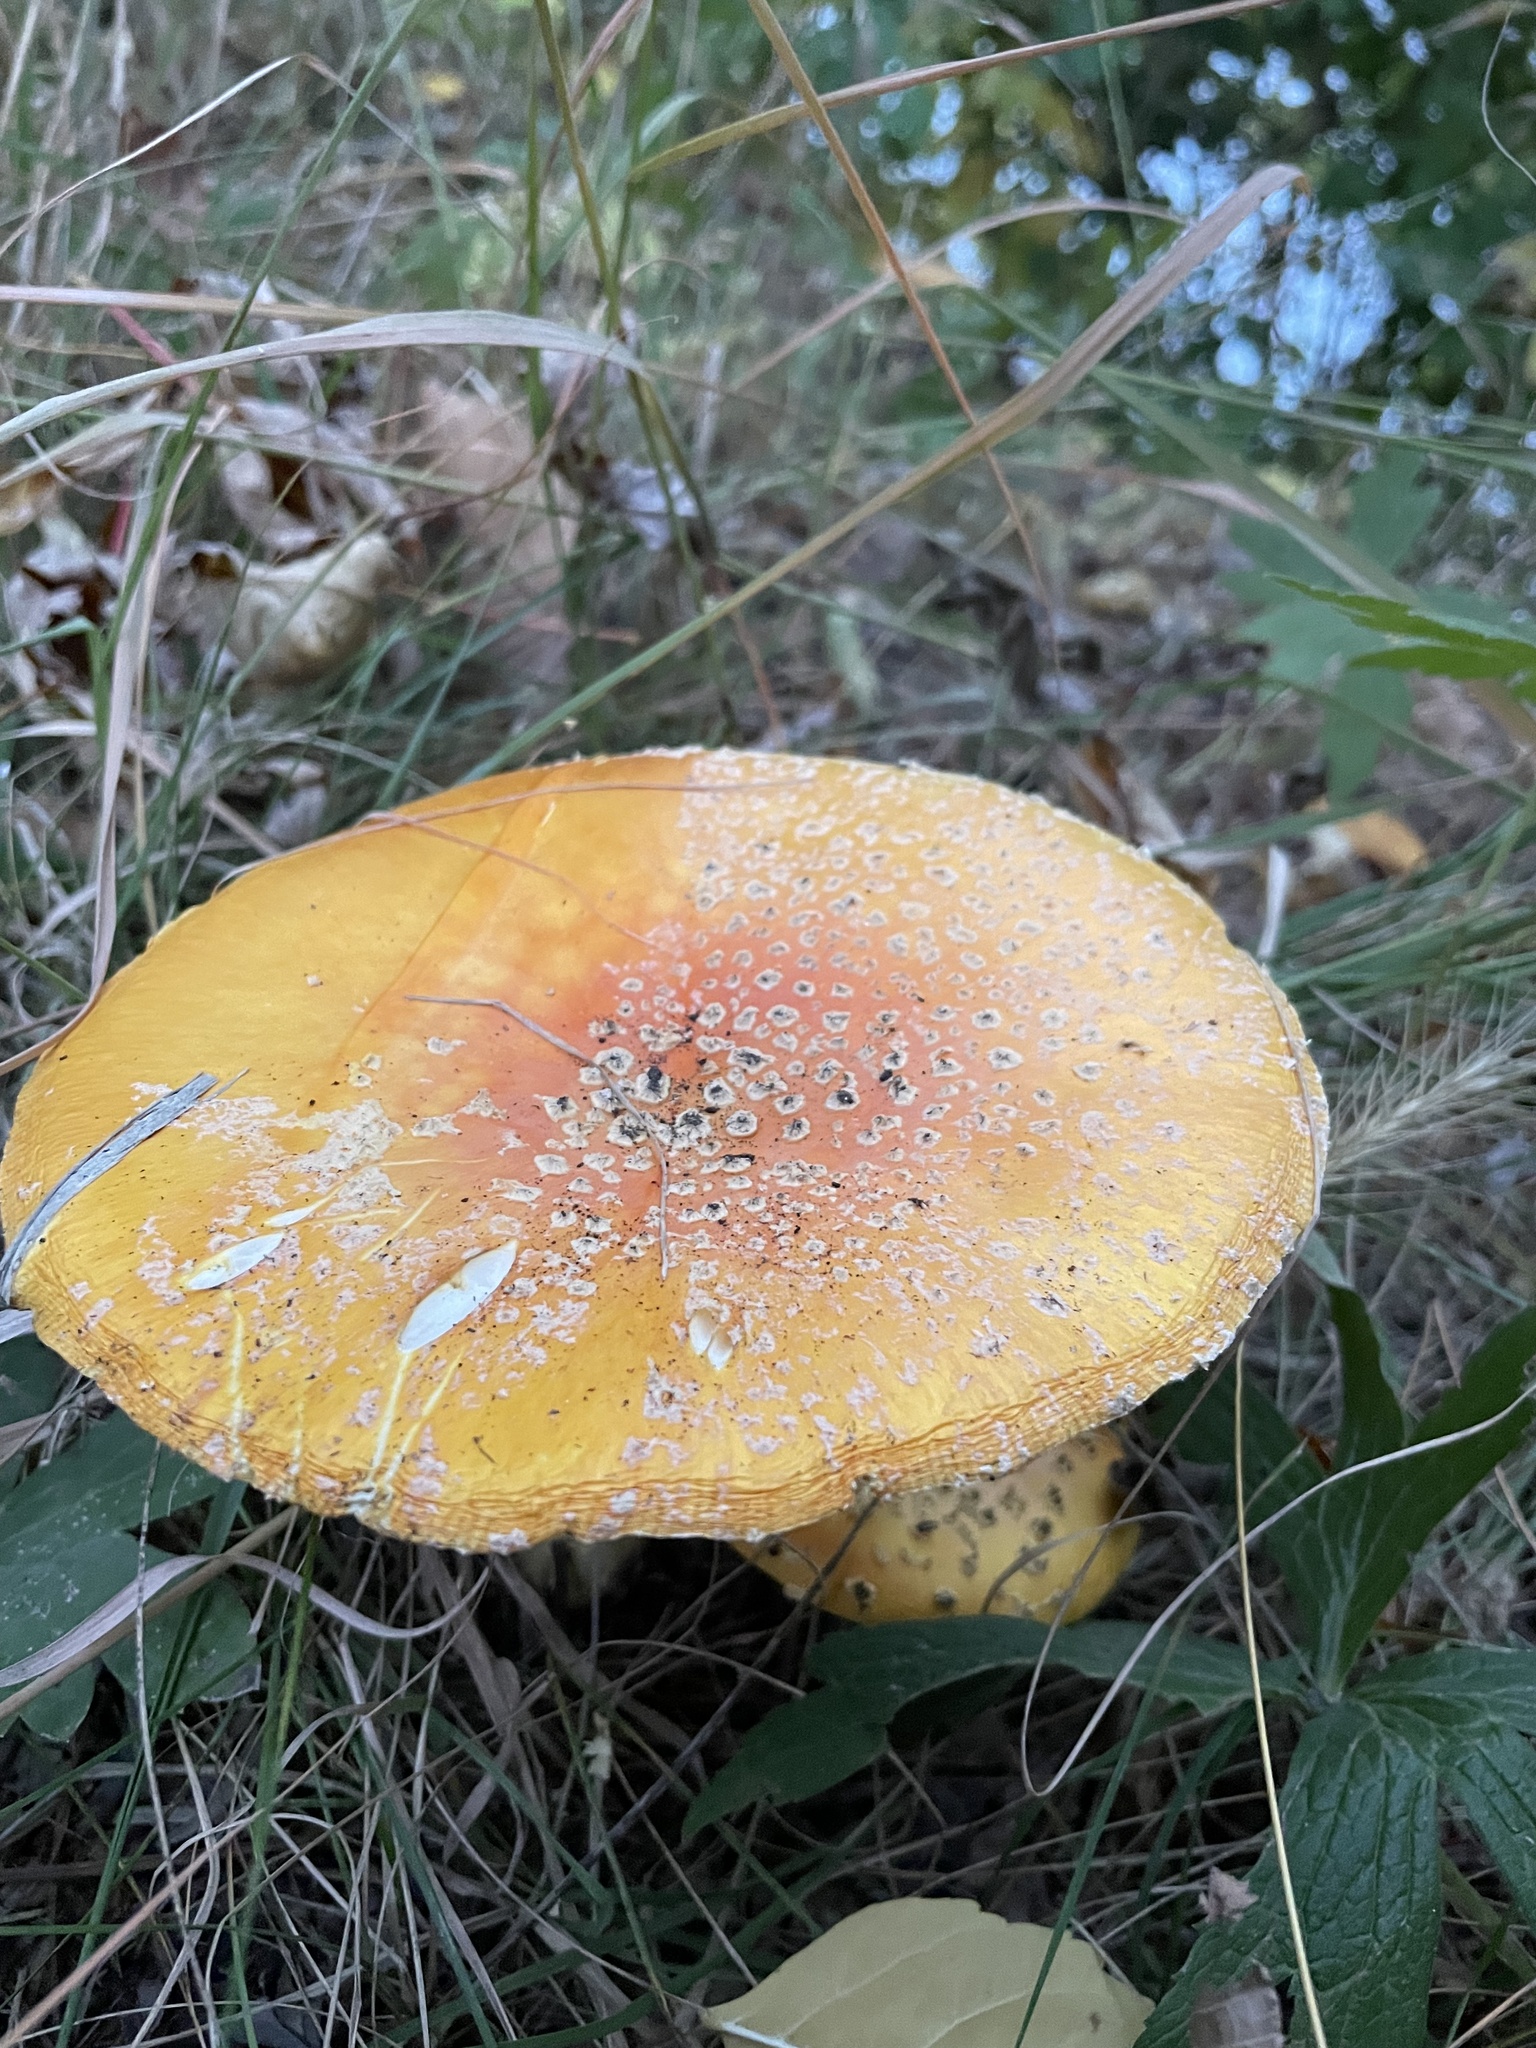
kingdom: Fungi
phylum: Basidiomycota
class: Agaricomycetes
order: Agaricales
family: Amanitaceae
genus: Amanita
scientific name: Amanita muscaria
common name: Fly agaric
